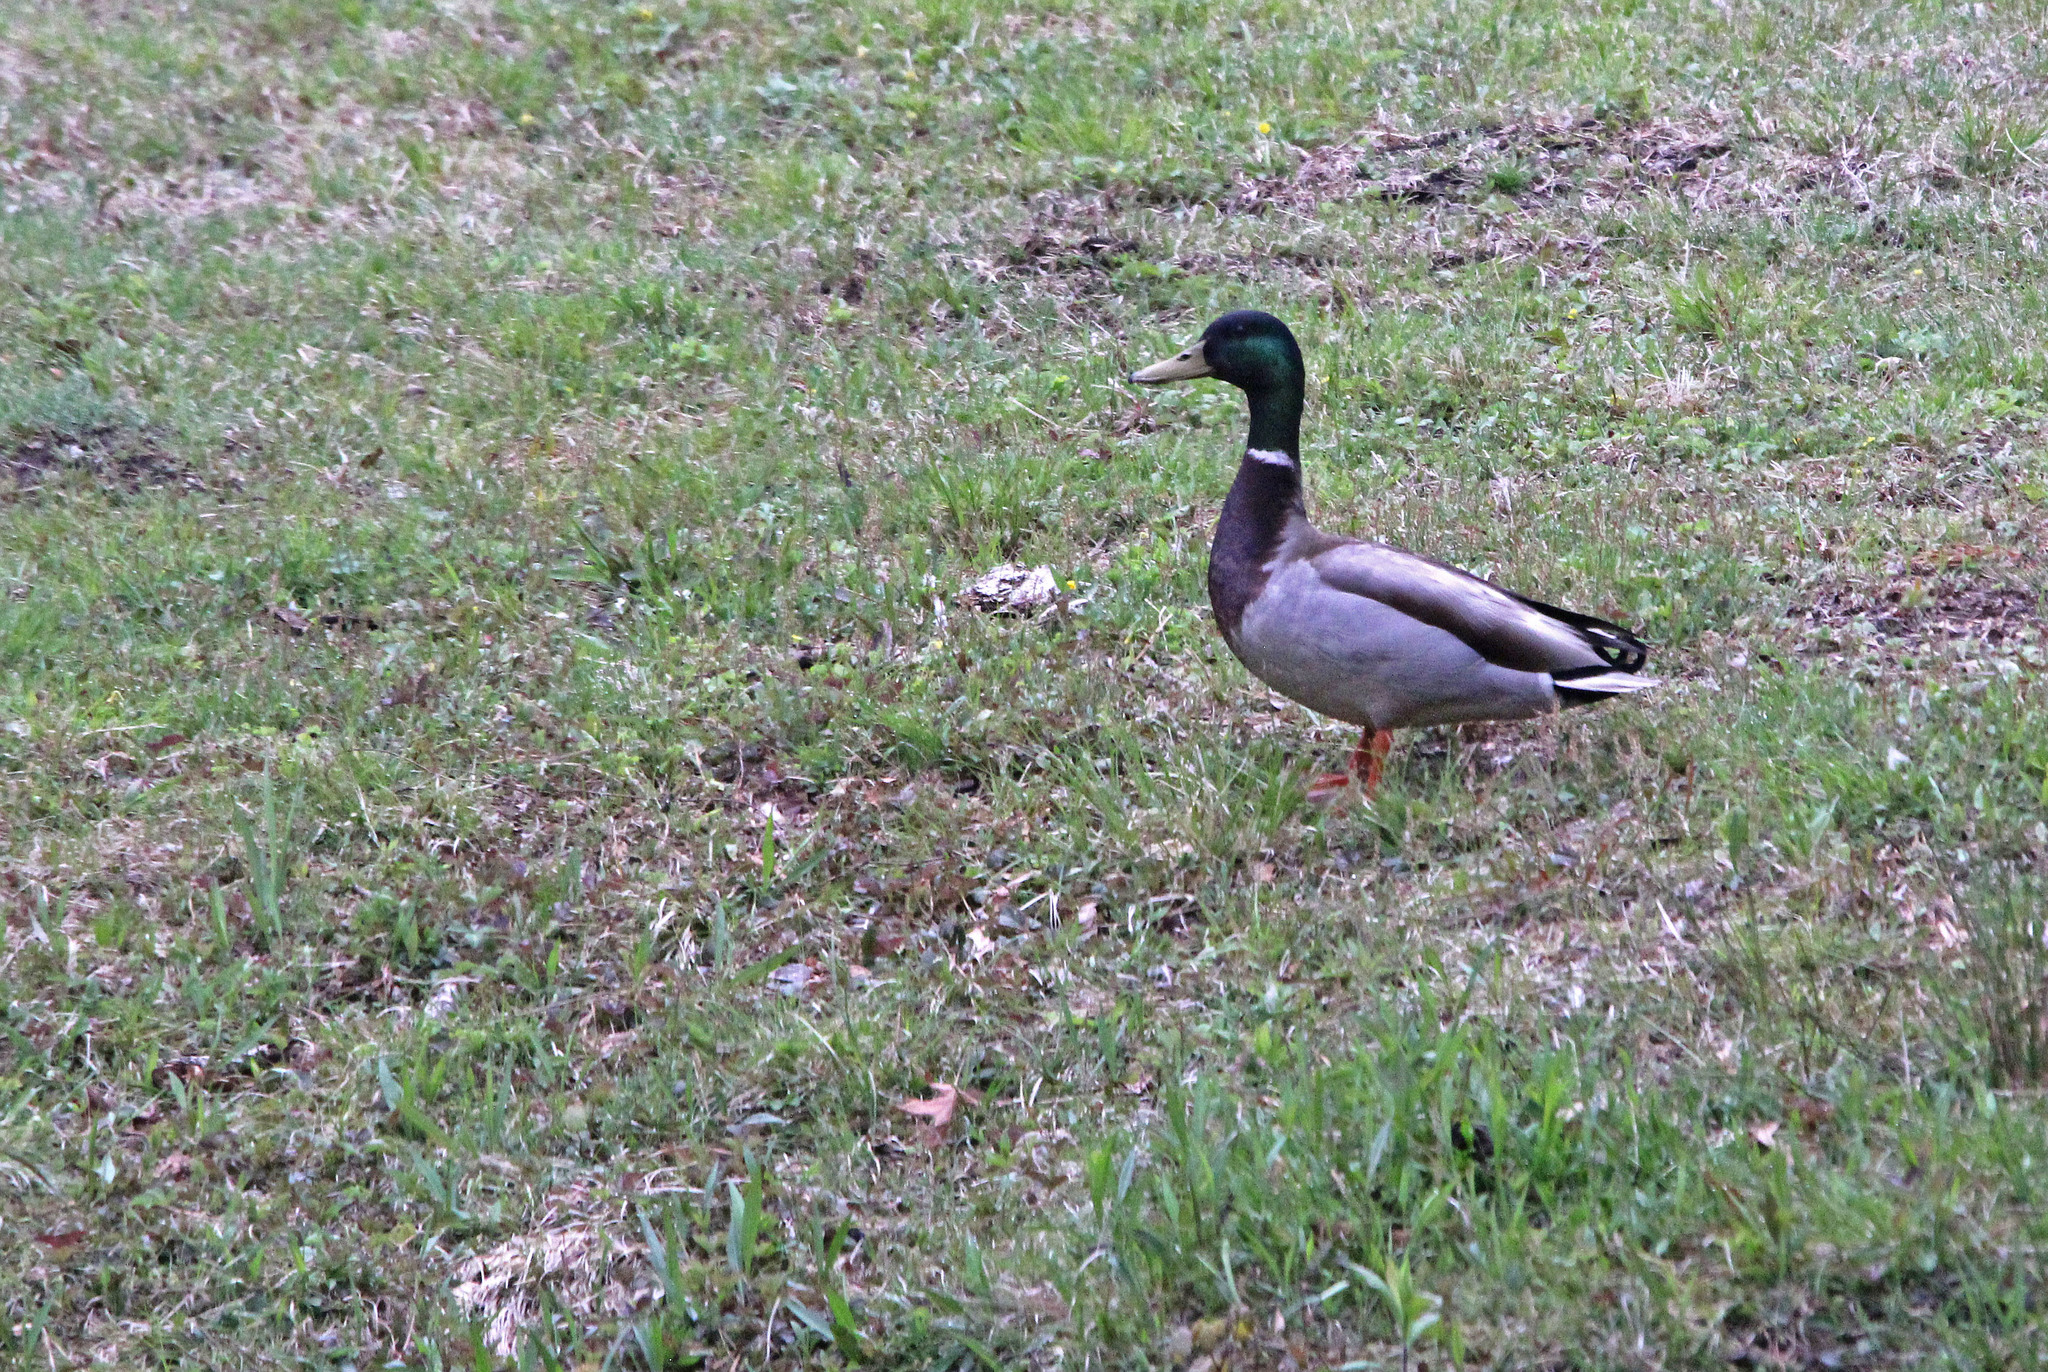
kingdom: Animalia
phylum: Chordata
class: Aves
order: Anseriformes
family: Anatidae
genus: Anas
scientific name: Anas platyrhynchos
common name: Mallard
